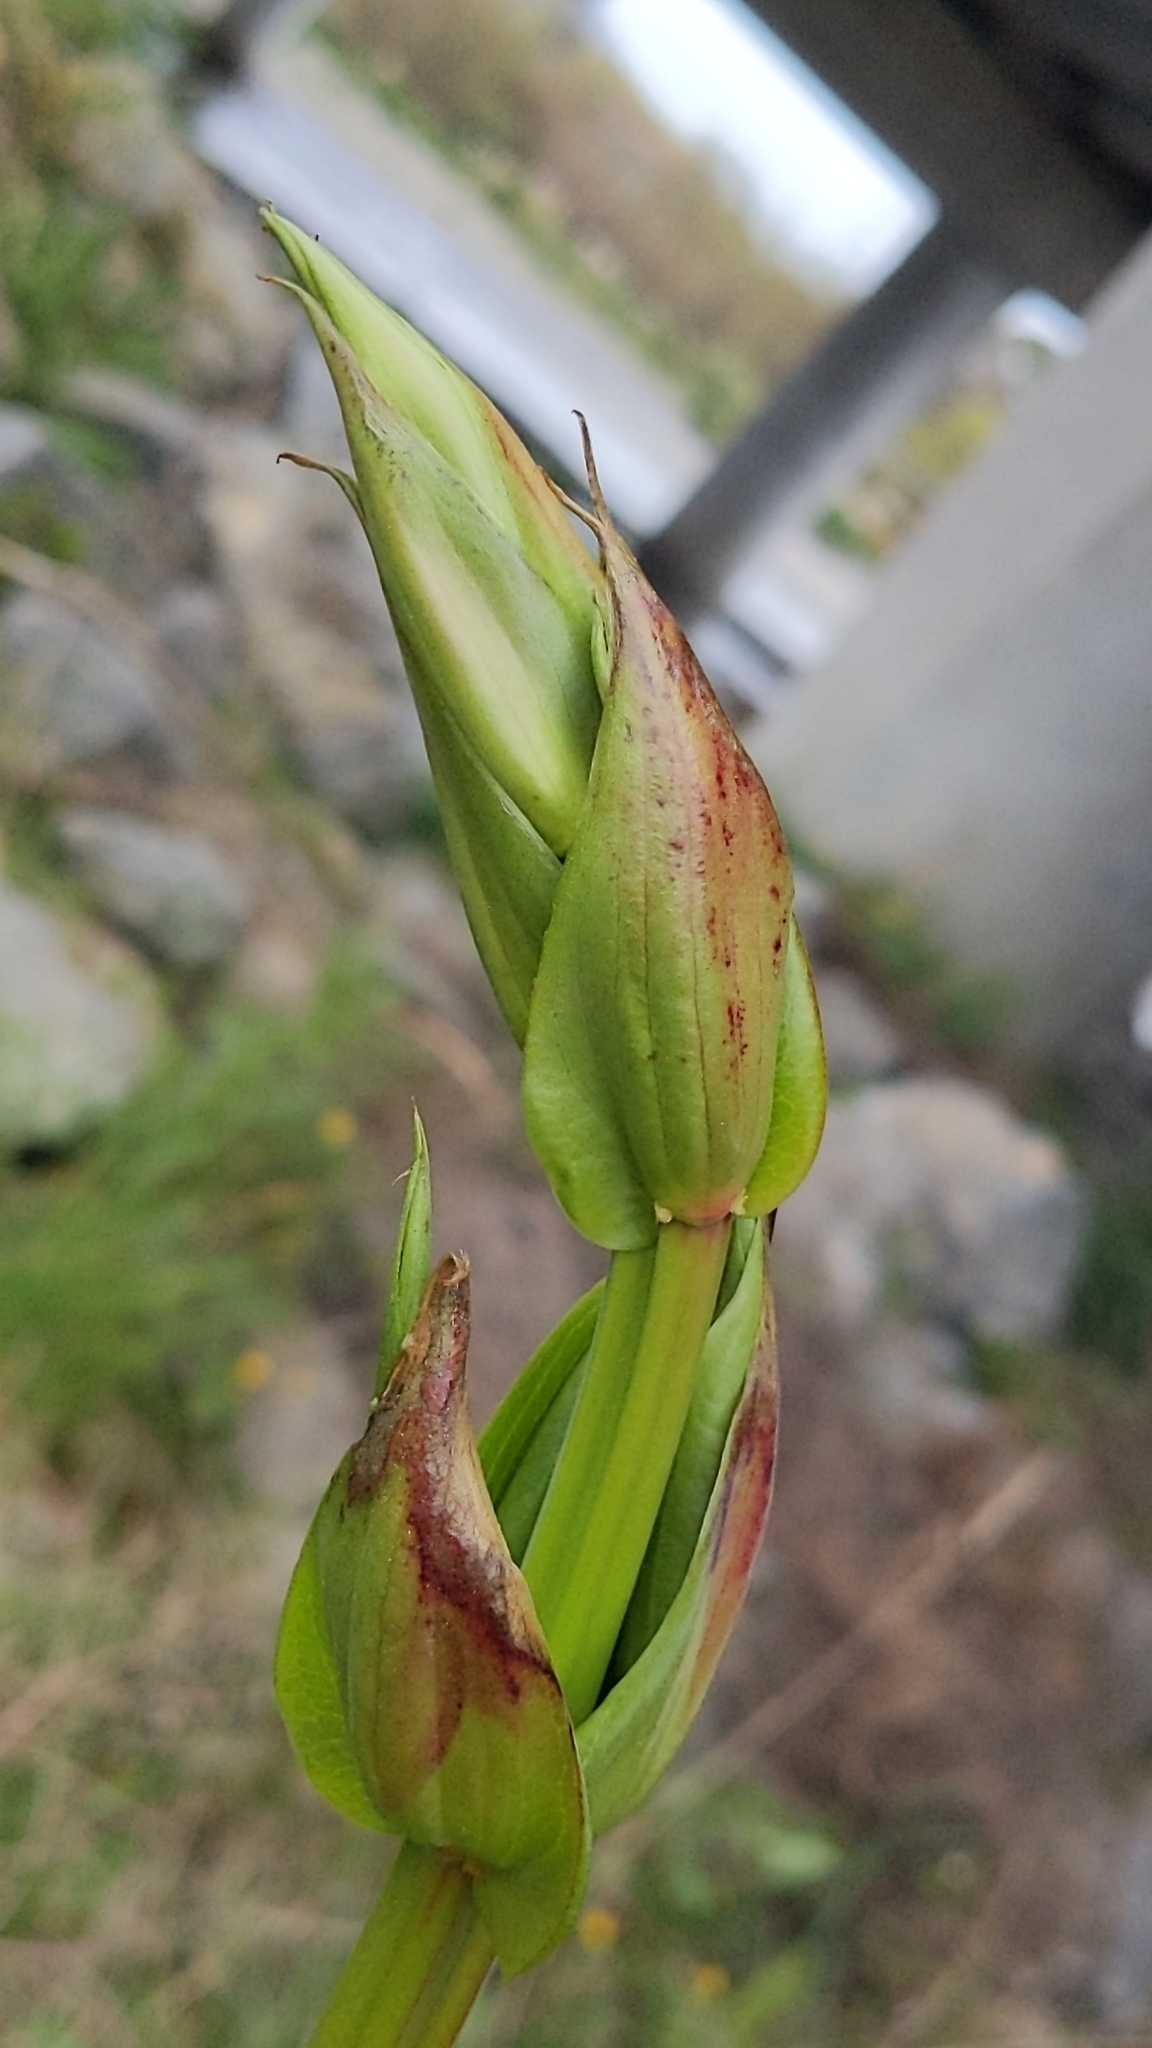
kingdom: Plantae
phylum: Tracheophyta
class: Magnoliopsida
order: Cucurbitales
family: Coriariaceae
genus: Coriaria
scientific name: Coriaria arborea
